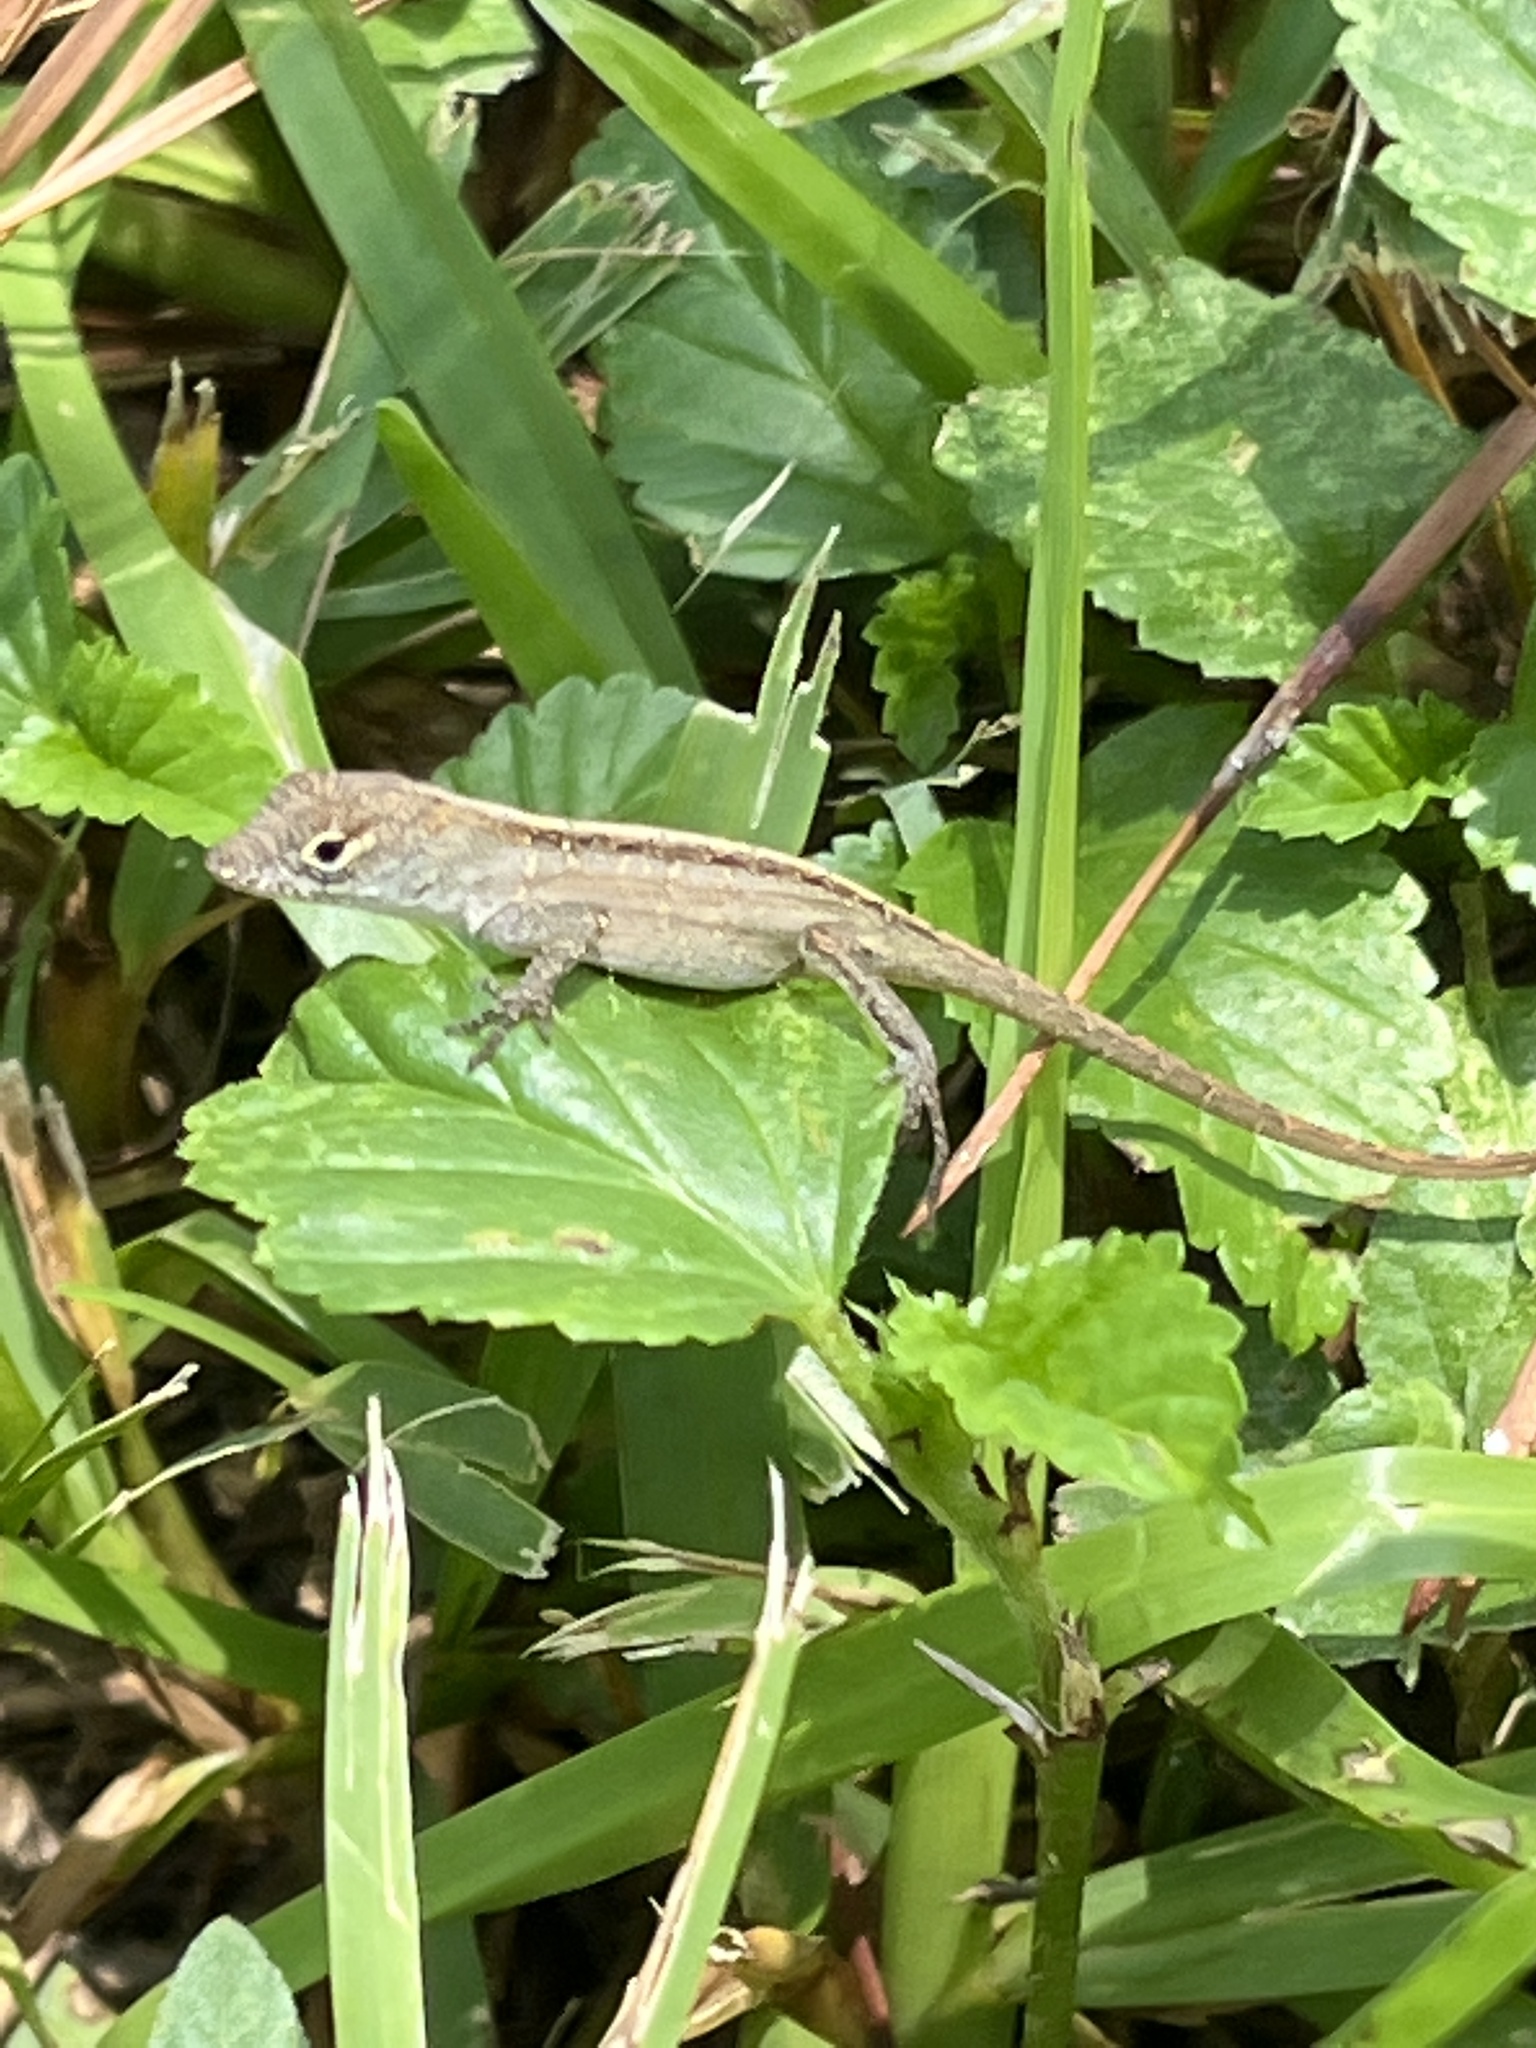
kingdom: Animalia
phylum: Chordata
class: Squamata
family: Dactyloidae
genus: Anolis
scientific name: Anolis sagrei
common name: Brown anole
